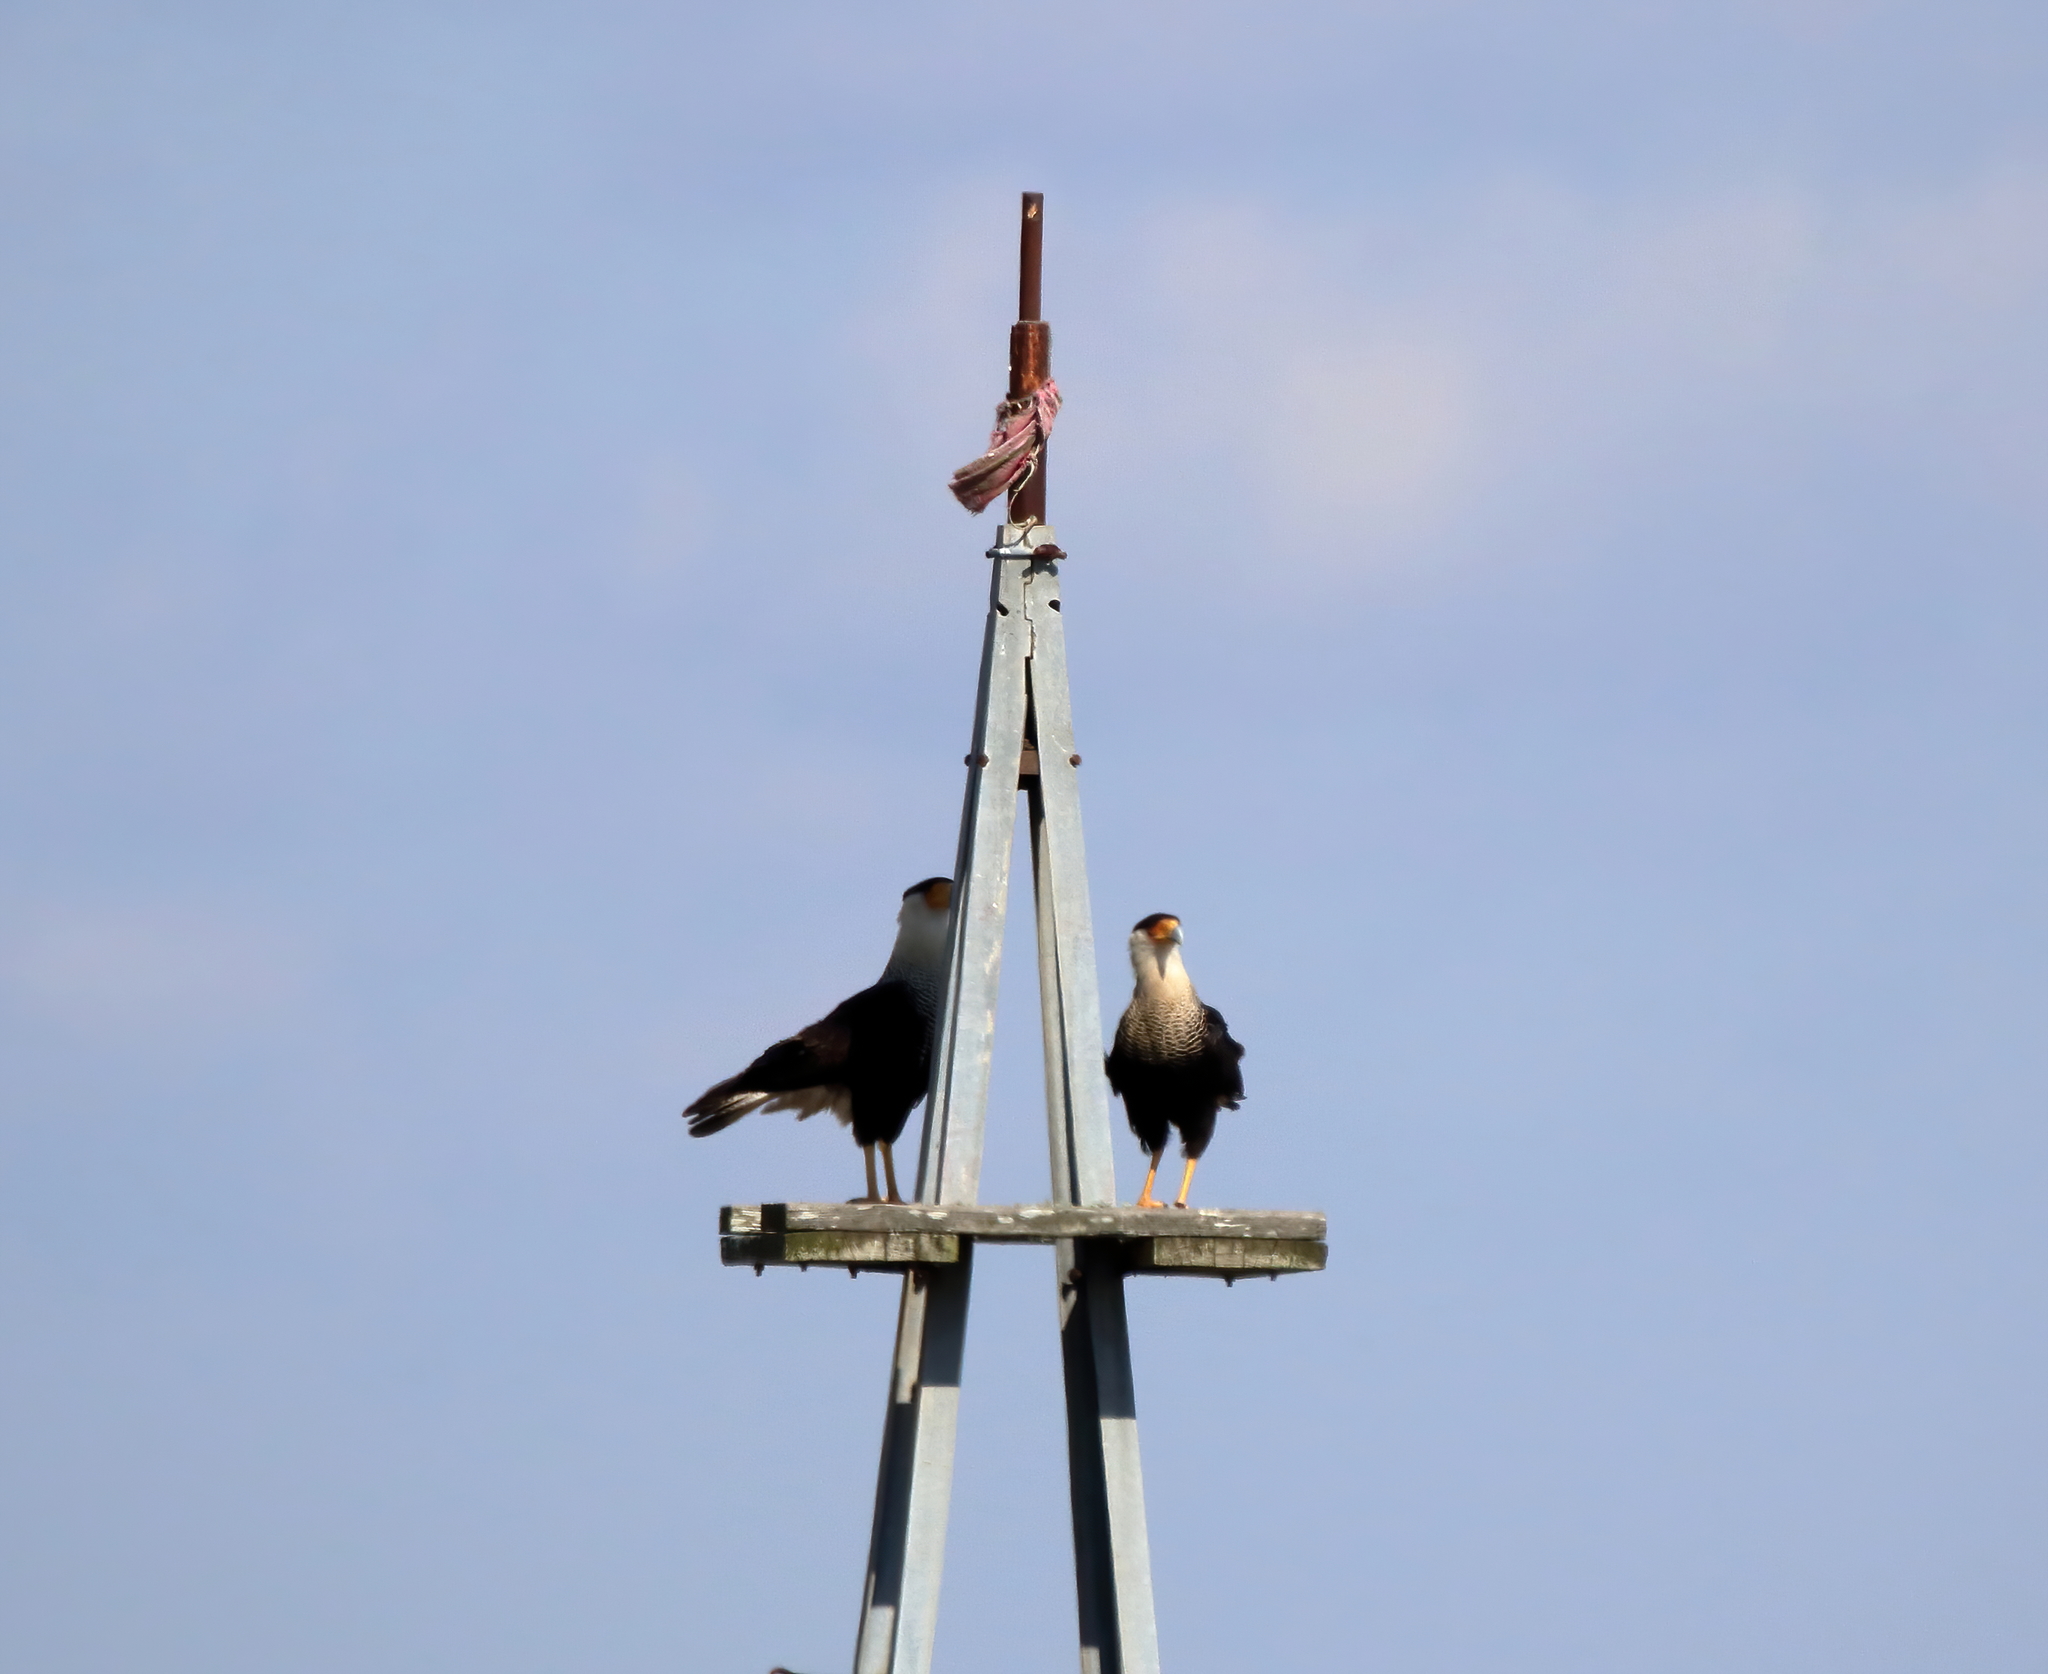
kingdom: Animalia
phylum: Chordata
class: Aves
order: Falconiformes
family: Falconidae
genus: Caracara
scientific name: Caracara plancus
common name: Southern caracara
